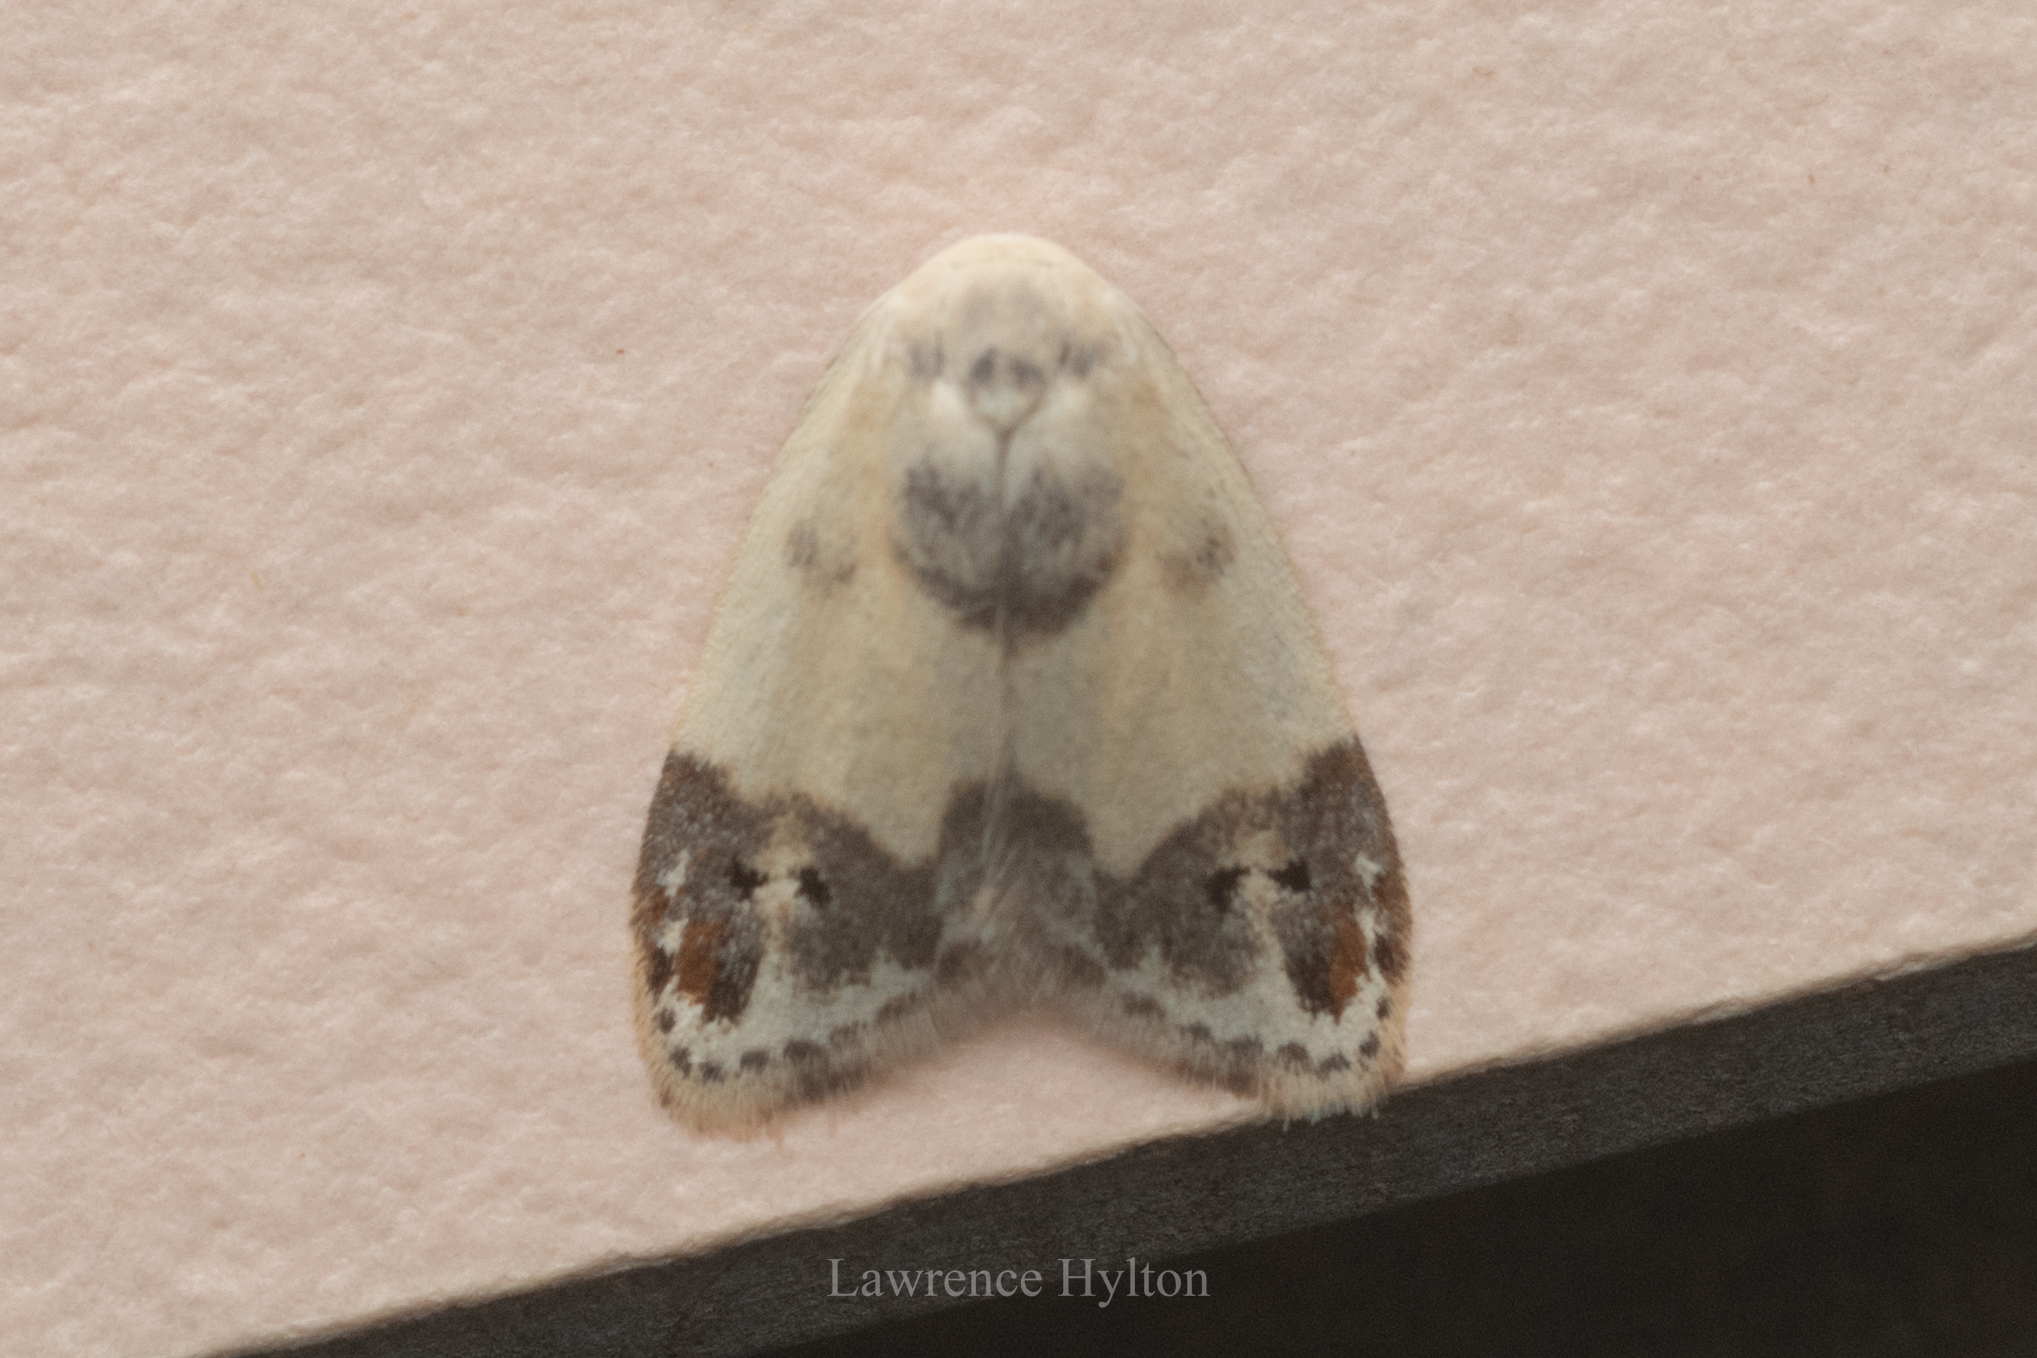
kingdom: Animalia
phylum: Arthropoda
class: Insecta
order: Lepidoptera
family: Erebidae
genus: Neoduma
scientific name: Neoduma kuangtungensis
